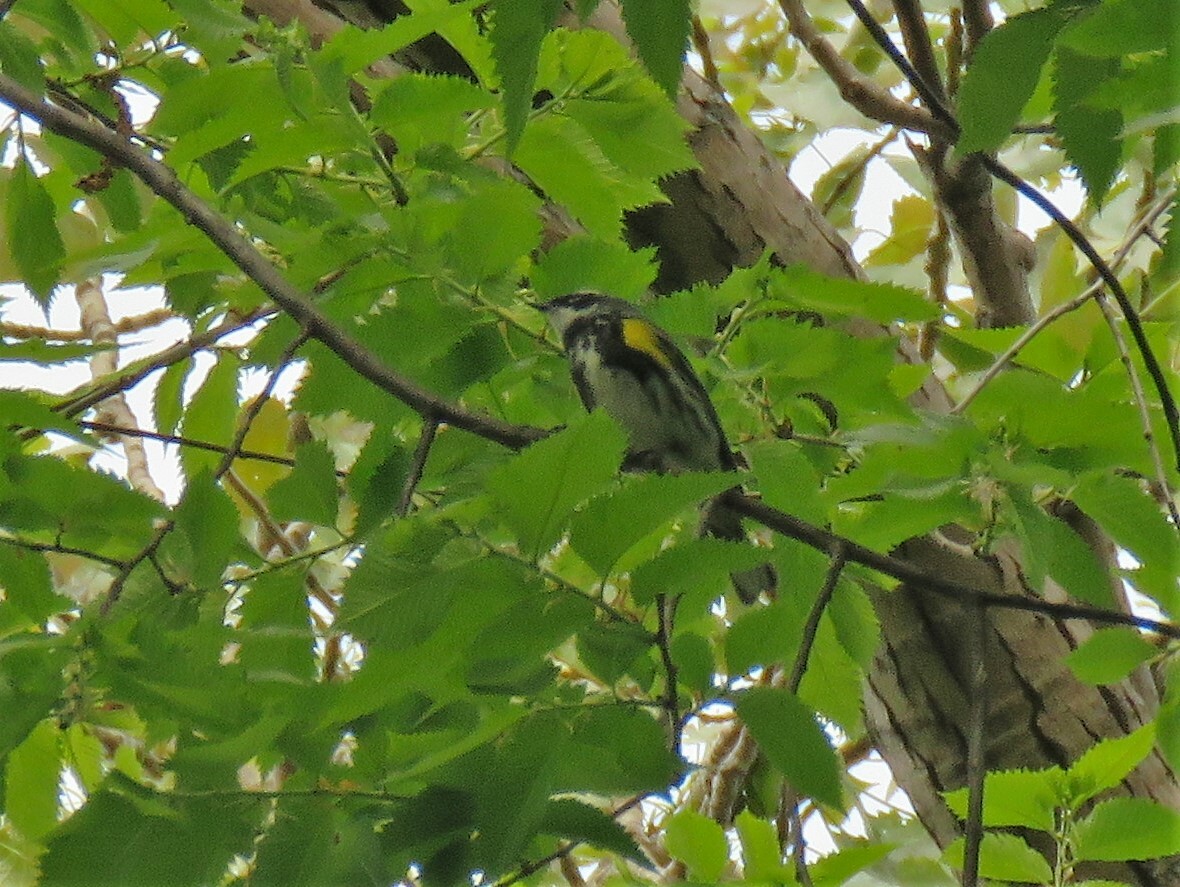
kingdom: Animalia
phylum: Chordata
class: Aves
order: Passeriformes
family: Parulidae
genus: Setophaga
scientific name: Setophaga coronata
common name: Myrtle warbler
